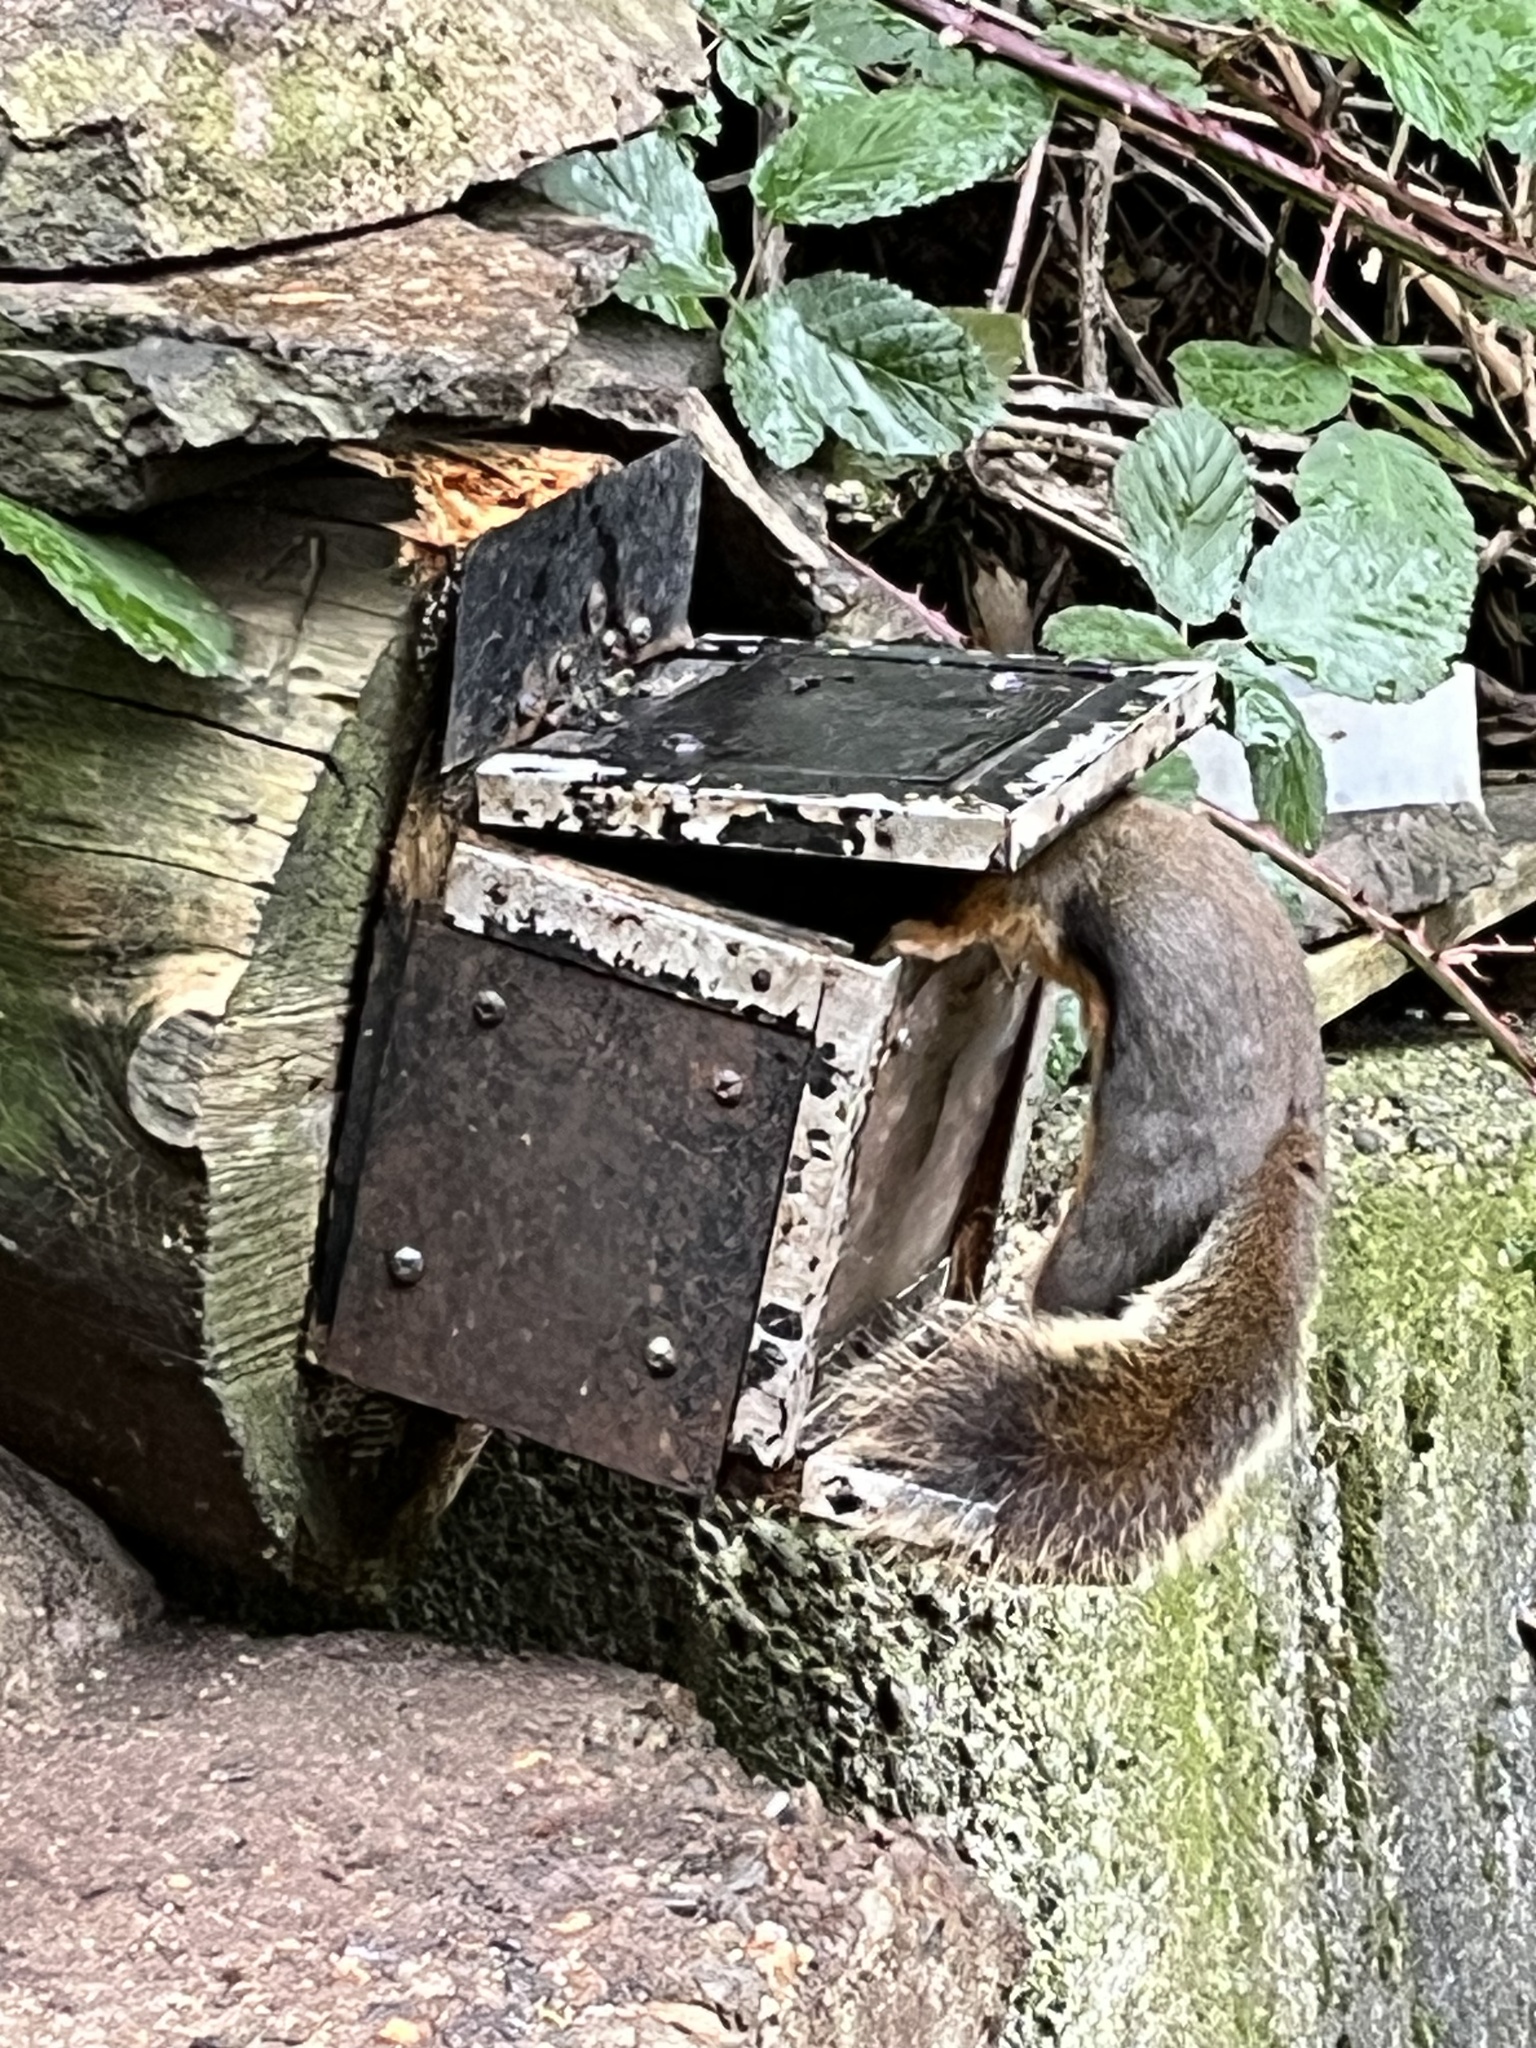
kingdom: Animalia
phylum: Chordata
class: Mammalia
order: Rodentia
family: Sciuridae
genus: Tamiasciurus
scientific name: Tamiasciurus douglasii
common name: Douglas's squirrel
